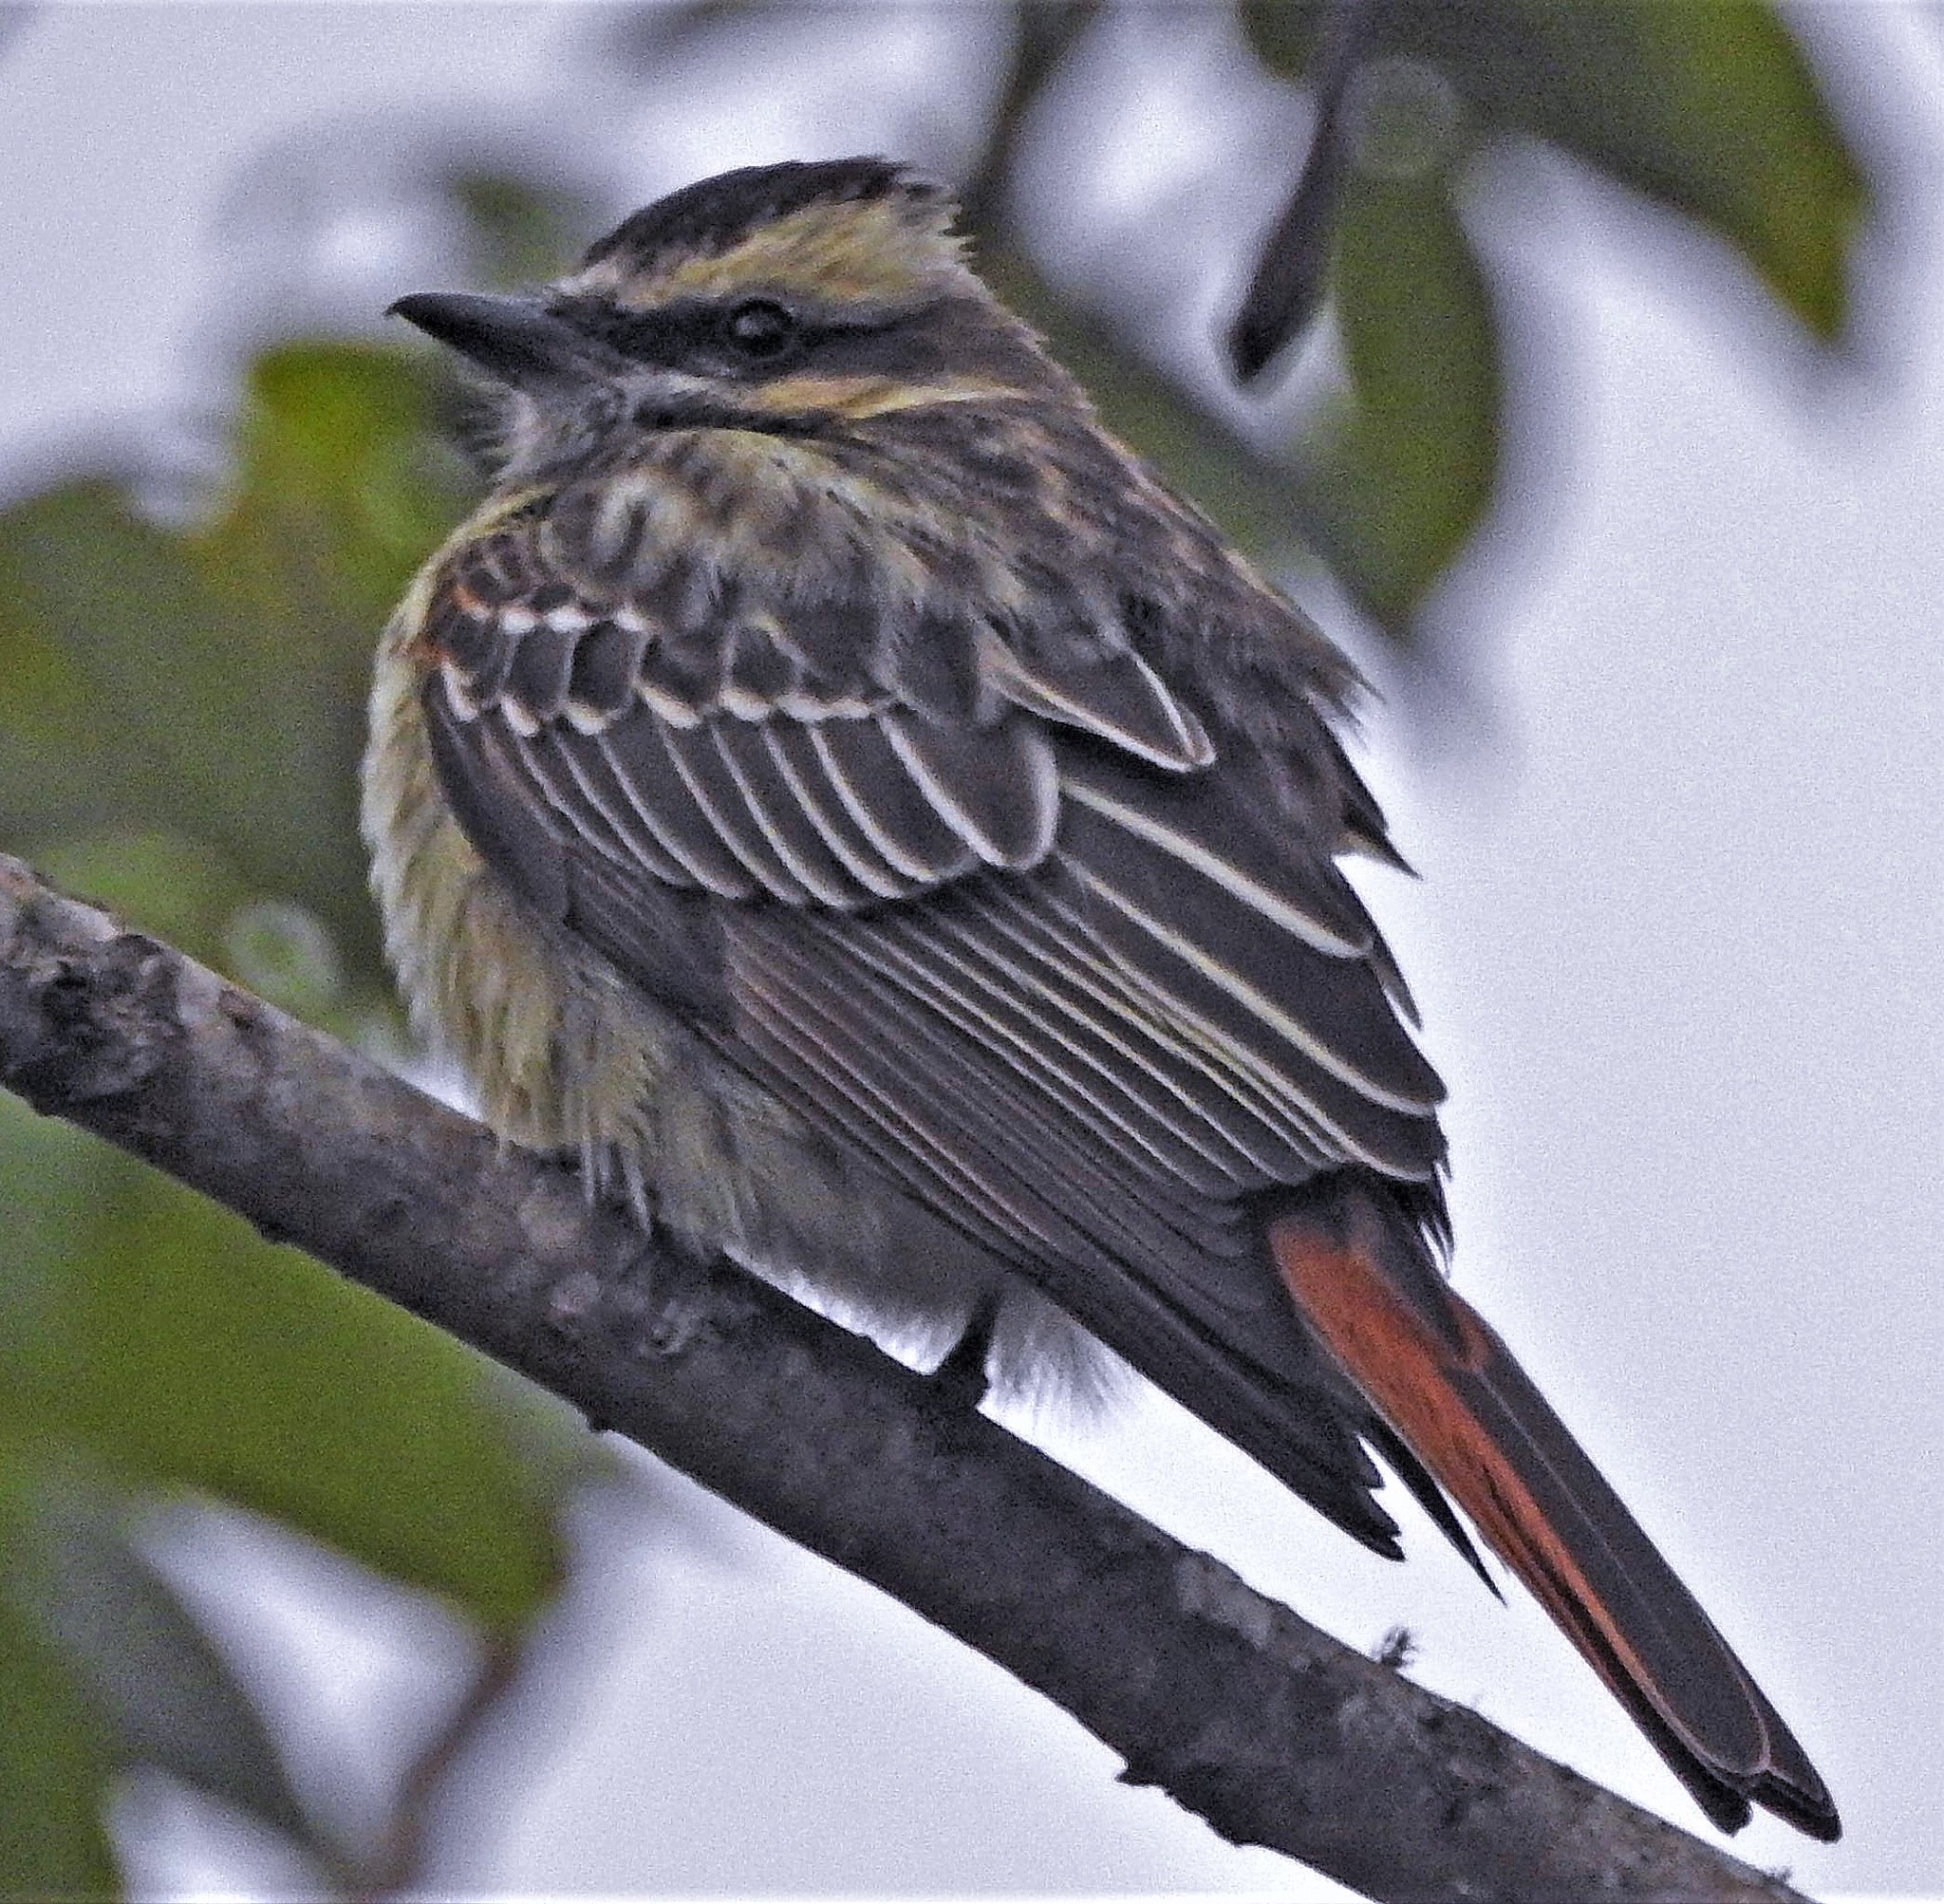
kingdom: Animalia
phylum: Chordata
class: Aves
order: Passeriformes
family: Tyrannidae
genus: Empidonomus
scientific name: Empidonomus varius
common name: Variegated flycatcher
